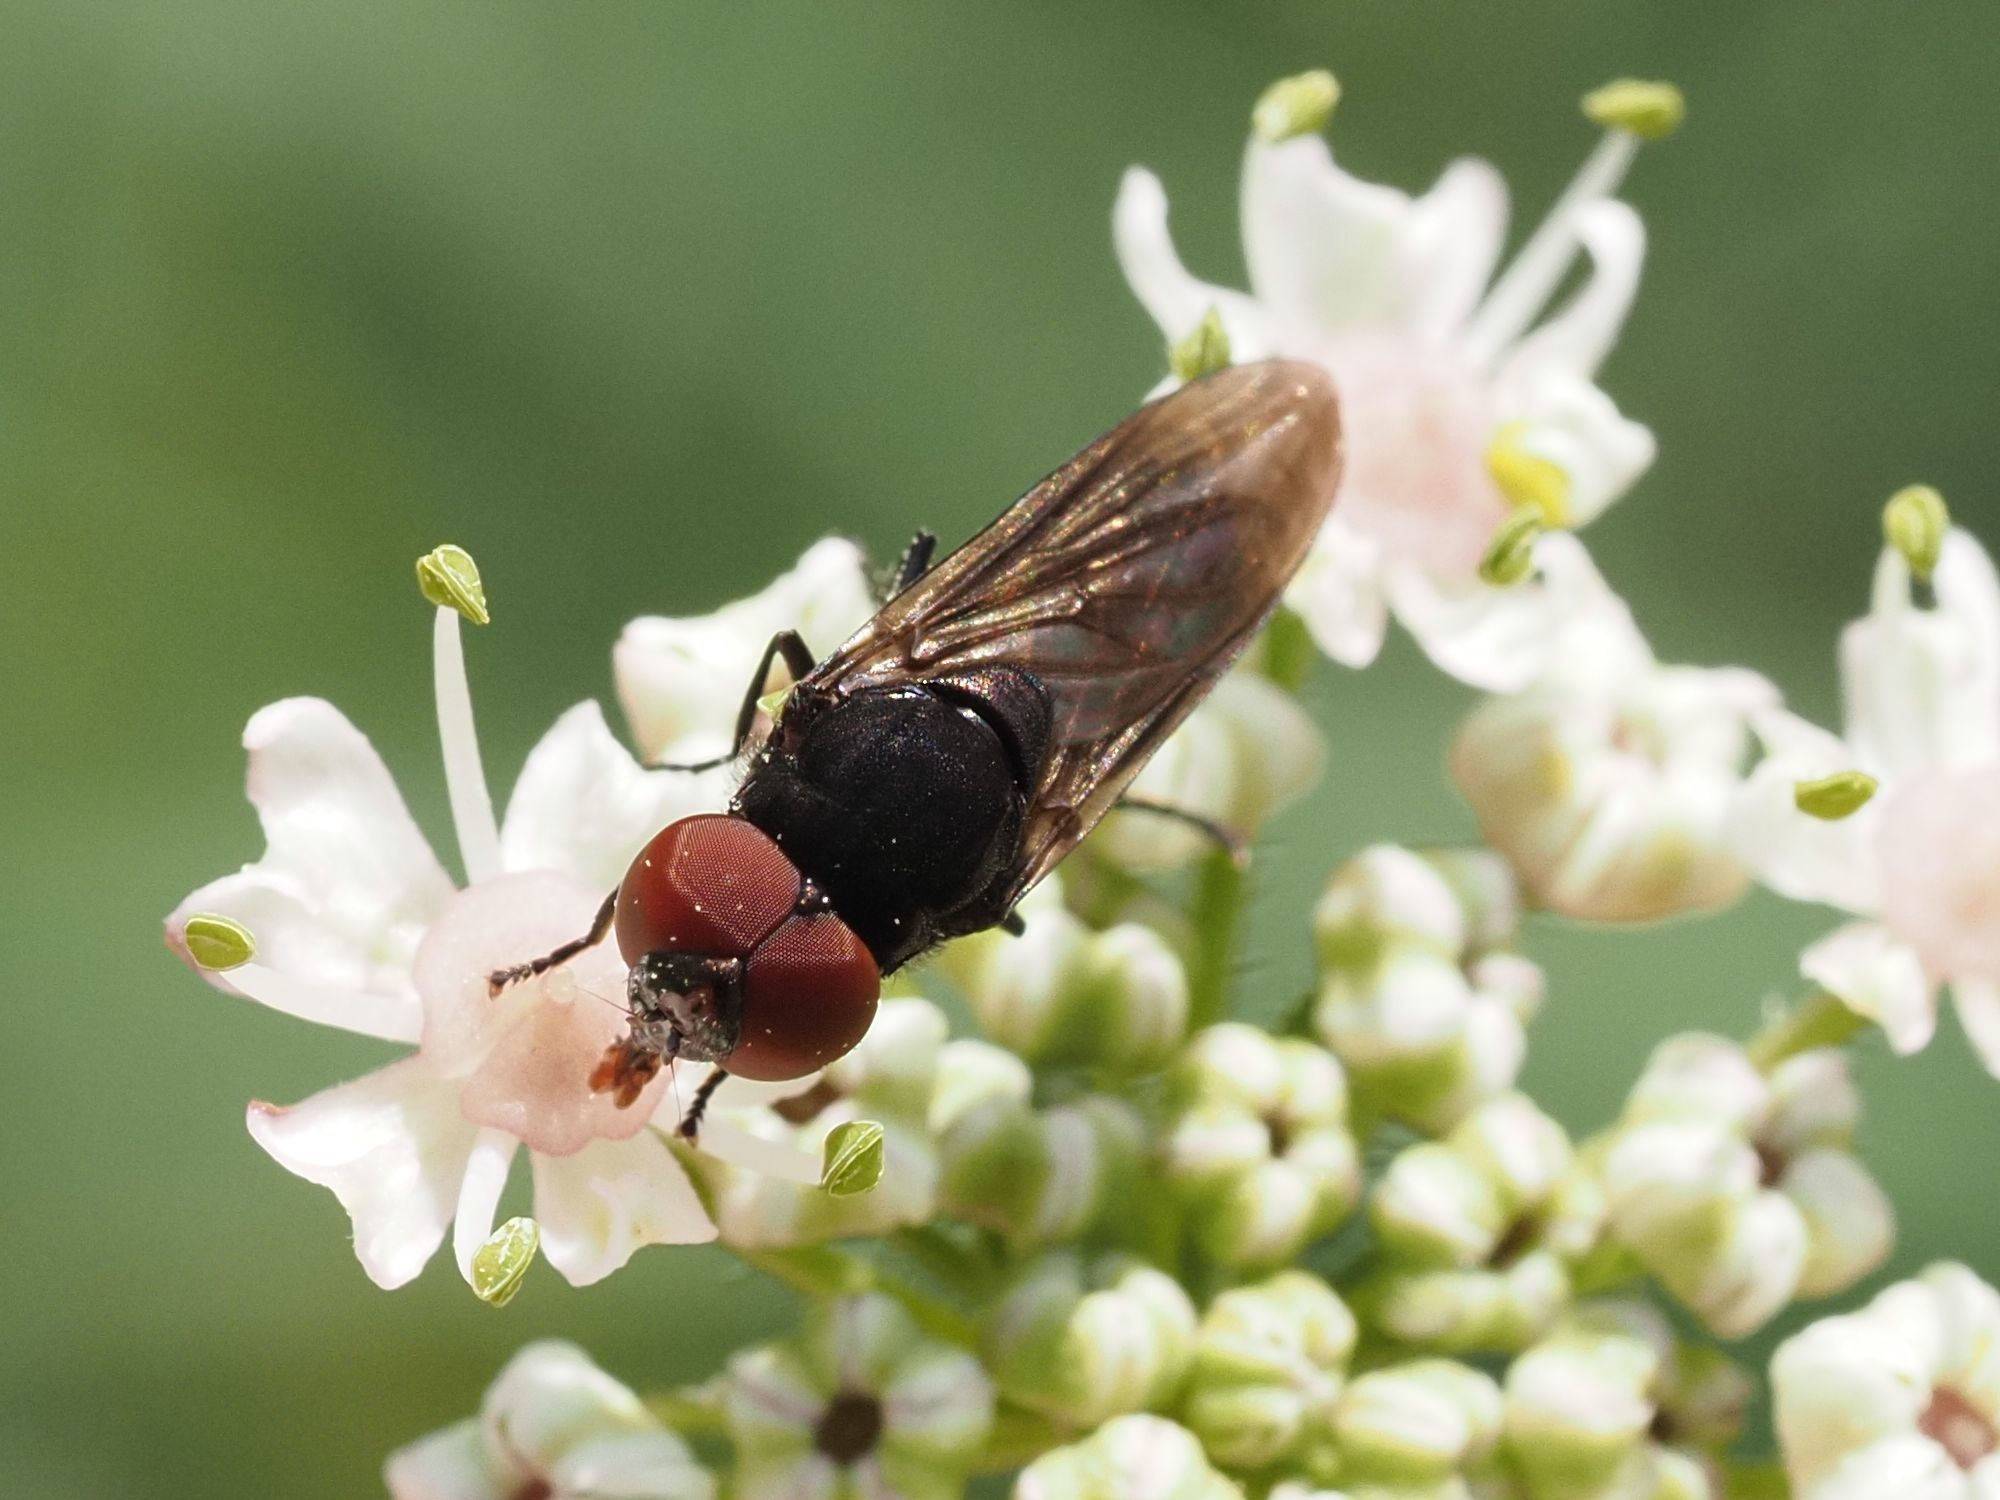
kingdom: Animalia
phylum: Arthropoda
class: Insecta
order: Diptera
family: Syrphidae
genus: Chrysogaster
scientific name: Chrysogaster solstitialis
